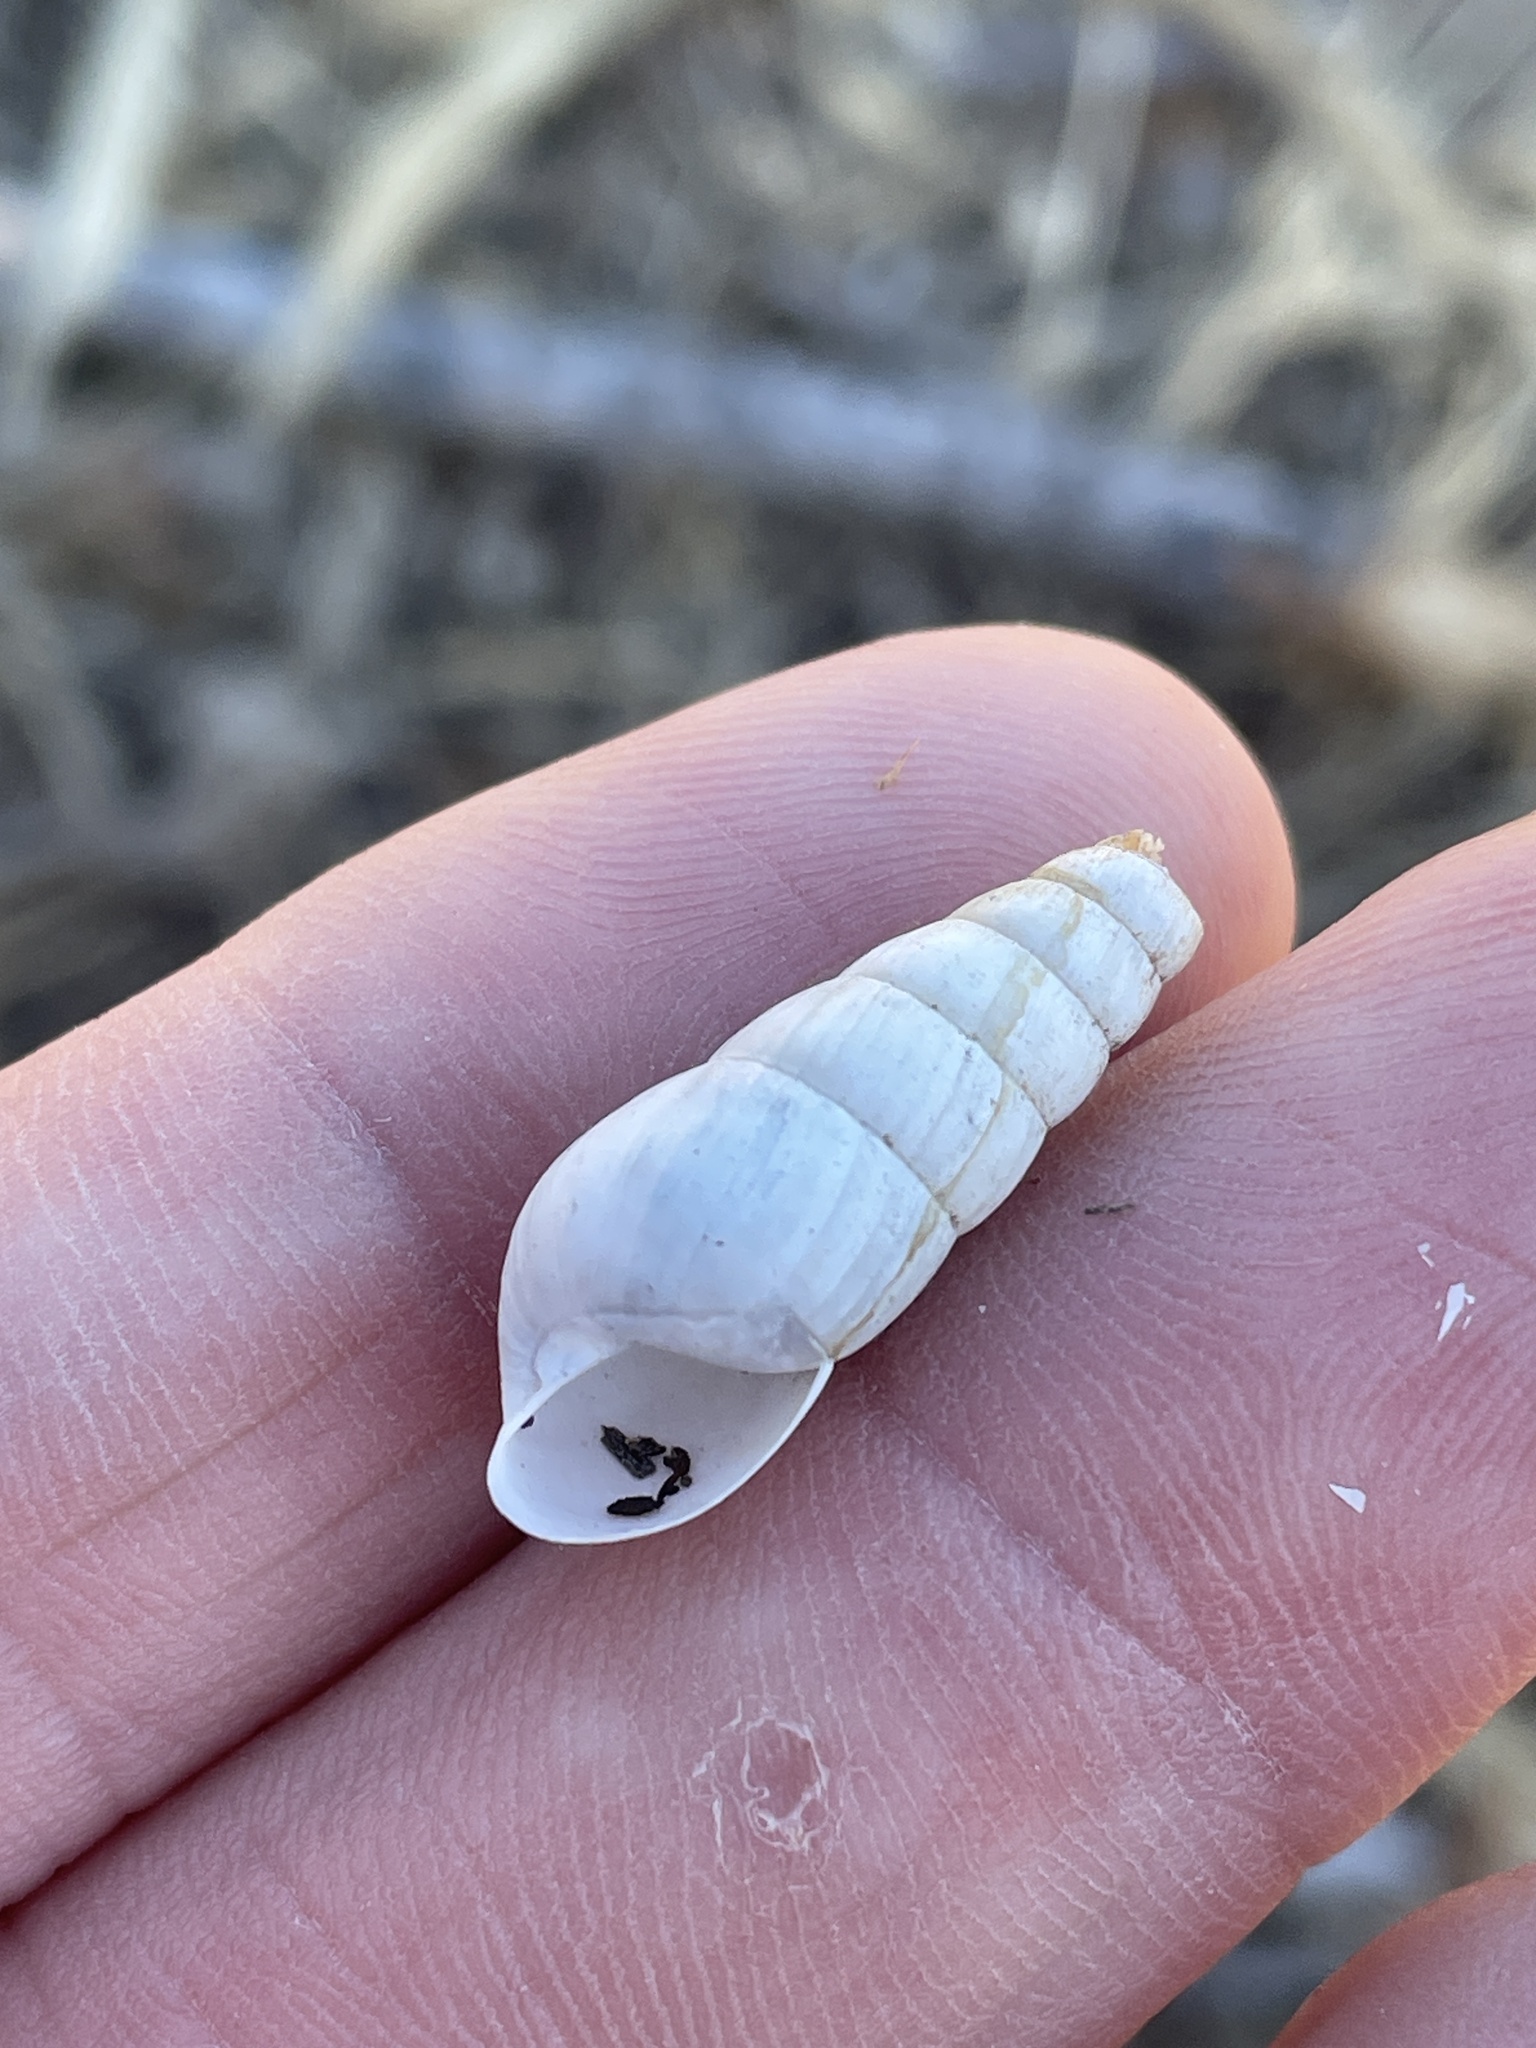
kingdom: Animalia
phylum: Mollusca
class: Gastropoda
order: Stylommatophora
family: Achatinidae
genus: Rumina
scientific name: Rumina decollata
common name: Decollate snail
